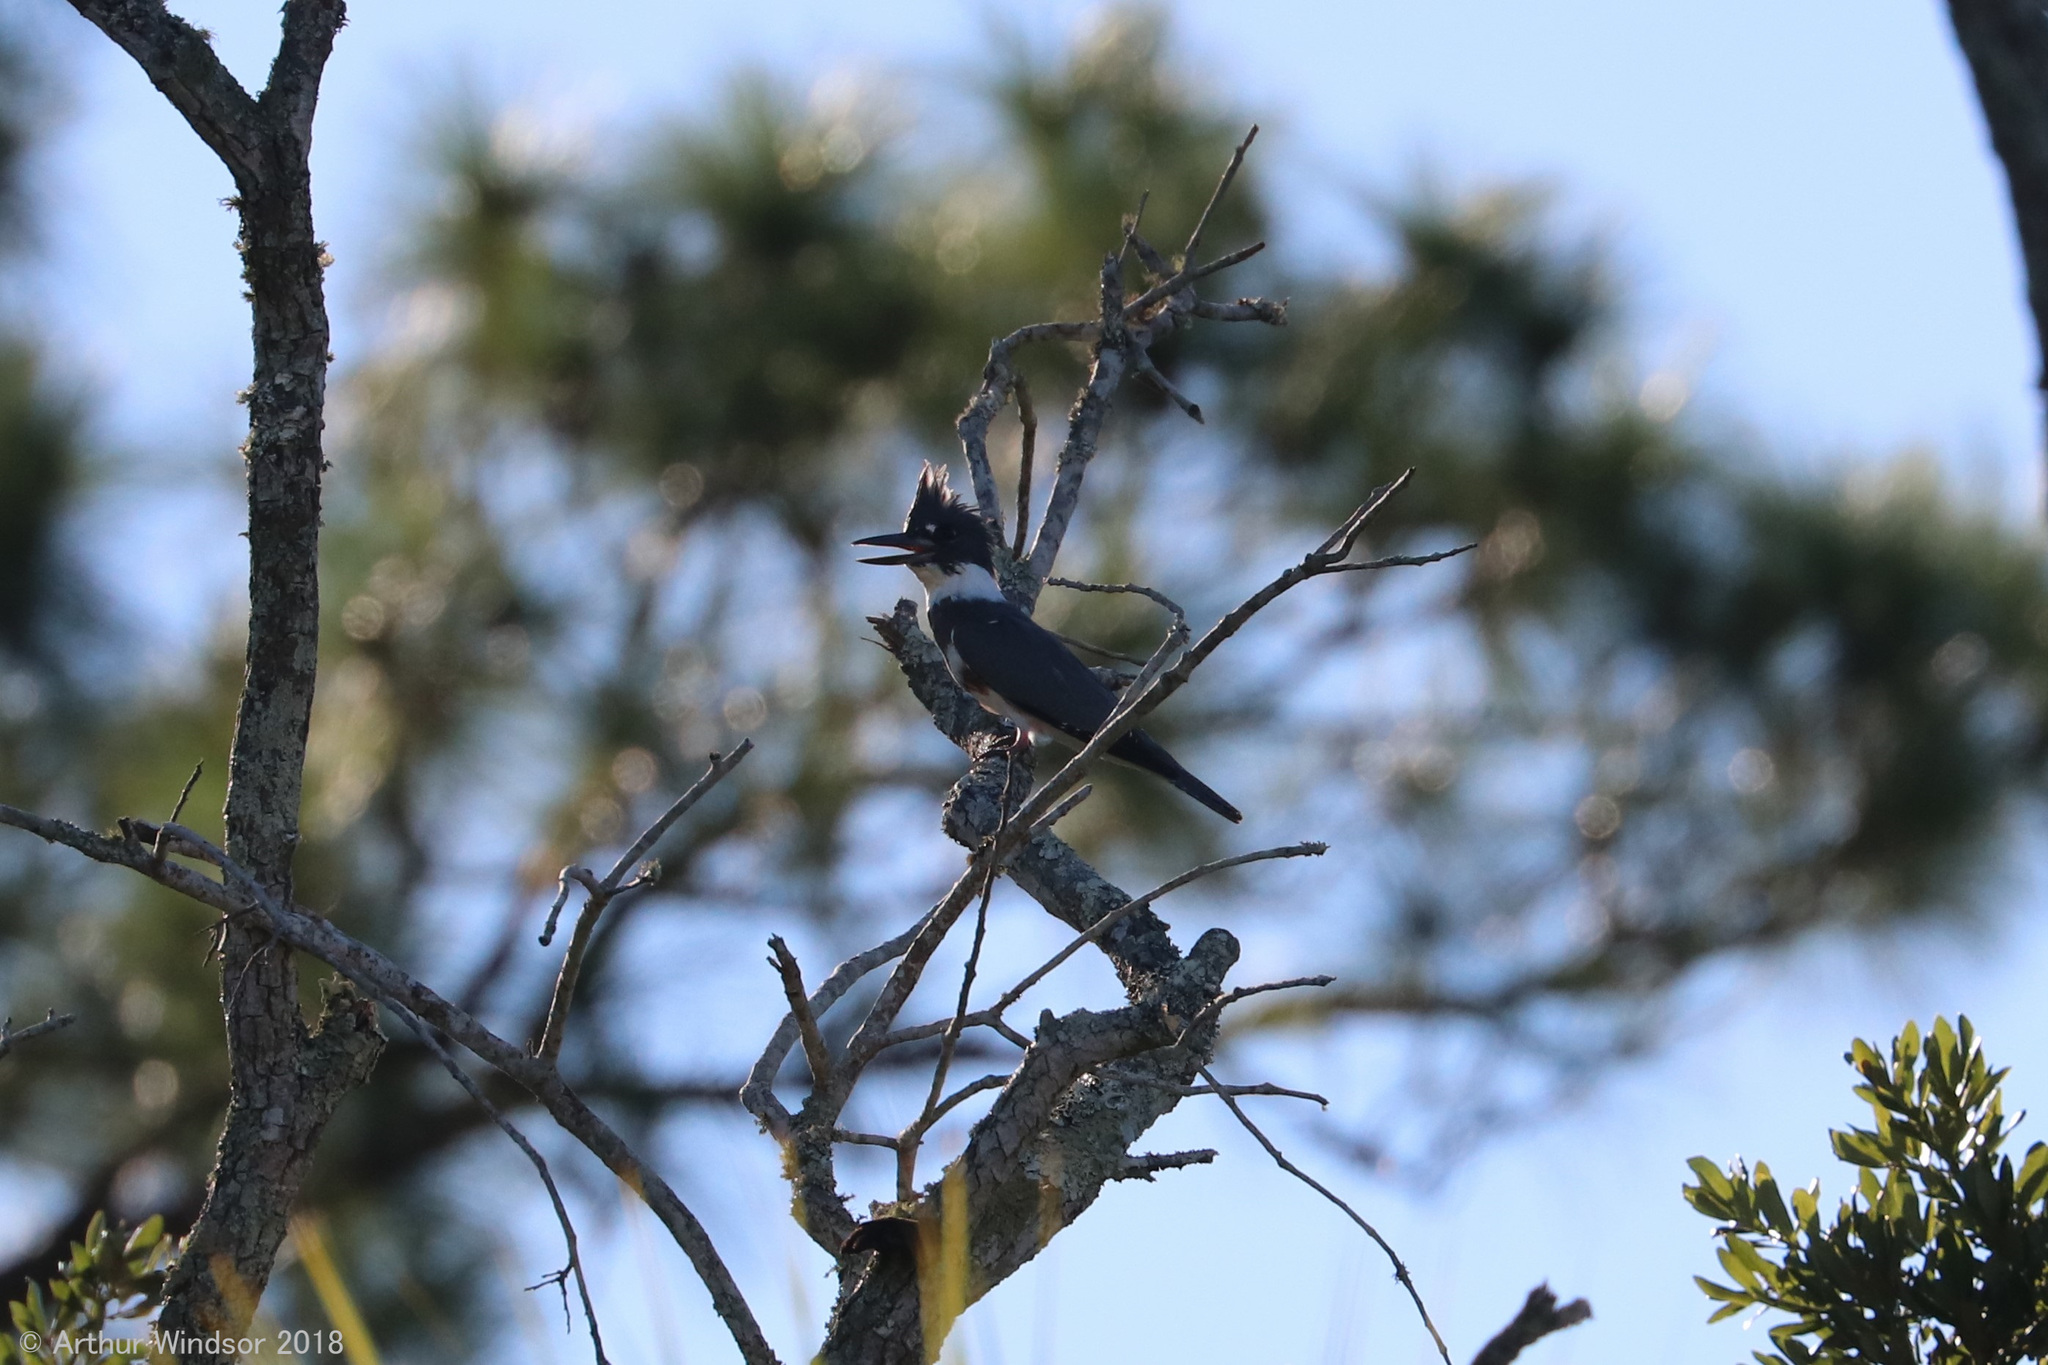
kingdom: Animalia
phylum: Chordata
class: Aves
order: Coraciiformes
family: Alcedinidae
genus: Megaceryle
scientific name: Megaceryle alcyon
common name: Belted kingfisher
